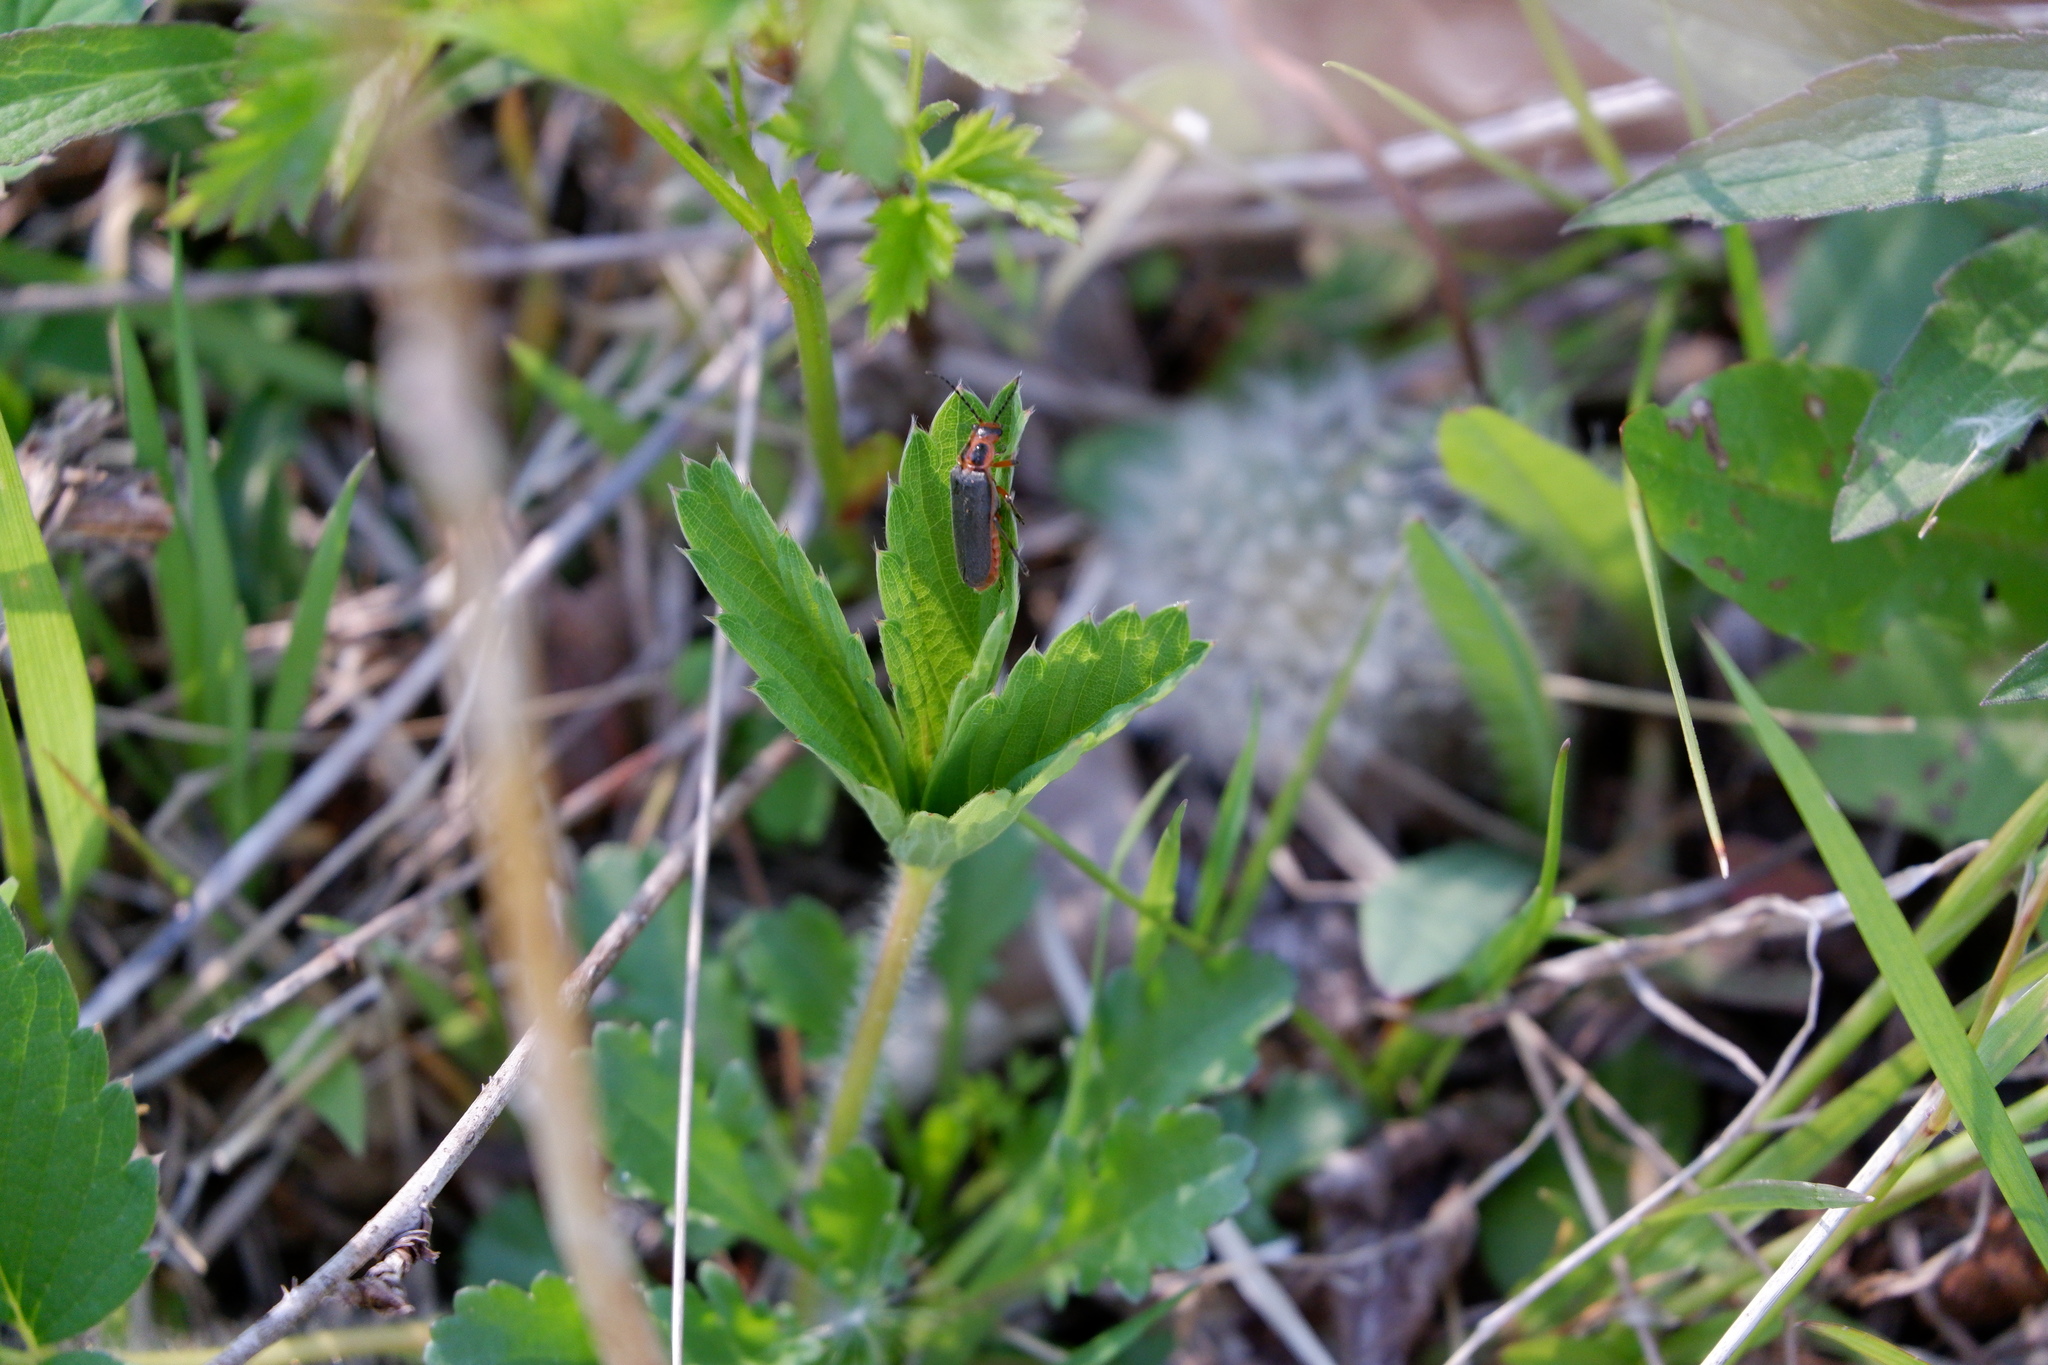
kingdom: Animalia
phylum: Arthropoda
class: Insecta
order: Coleoptera
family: Cantharidae
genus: Atalantycha
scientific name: Atalantycha bilineata
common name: Two-lined leatherwing
